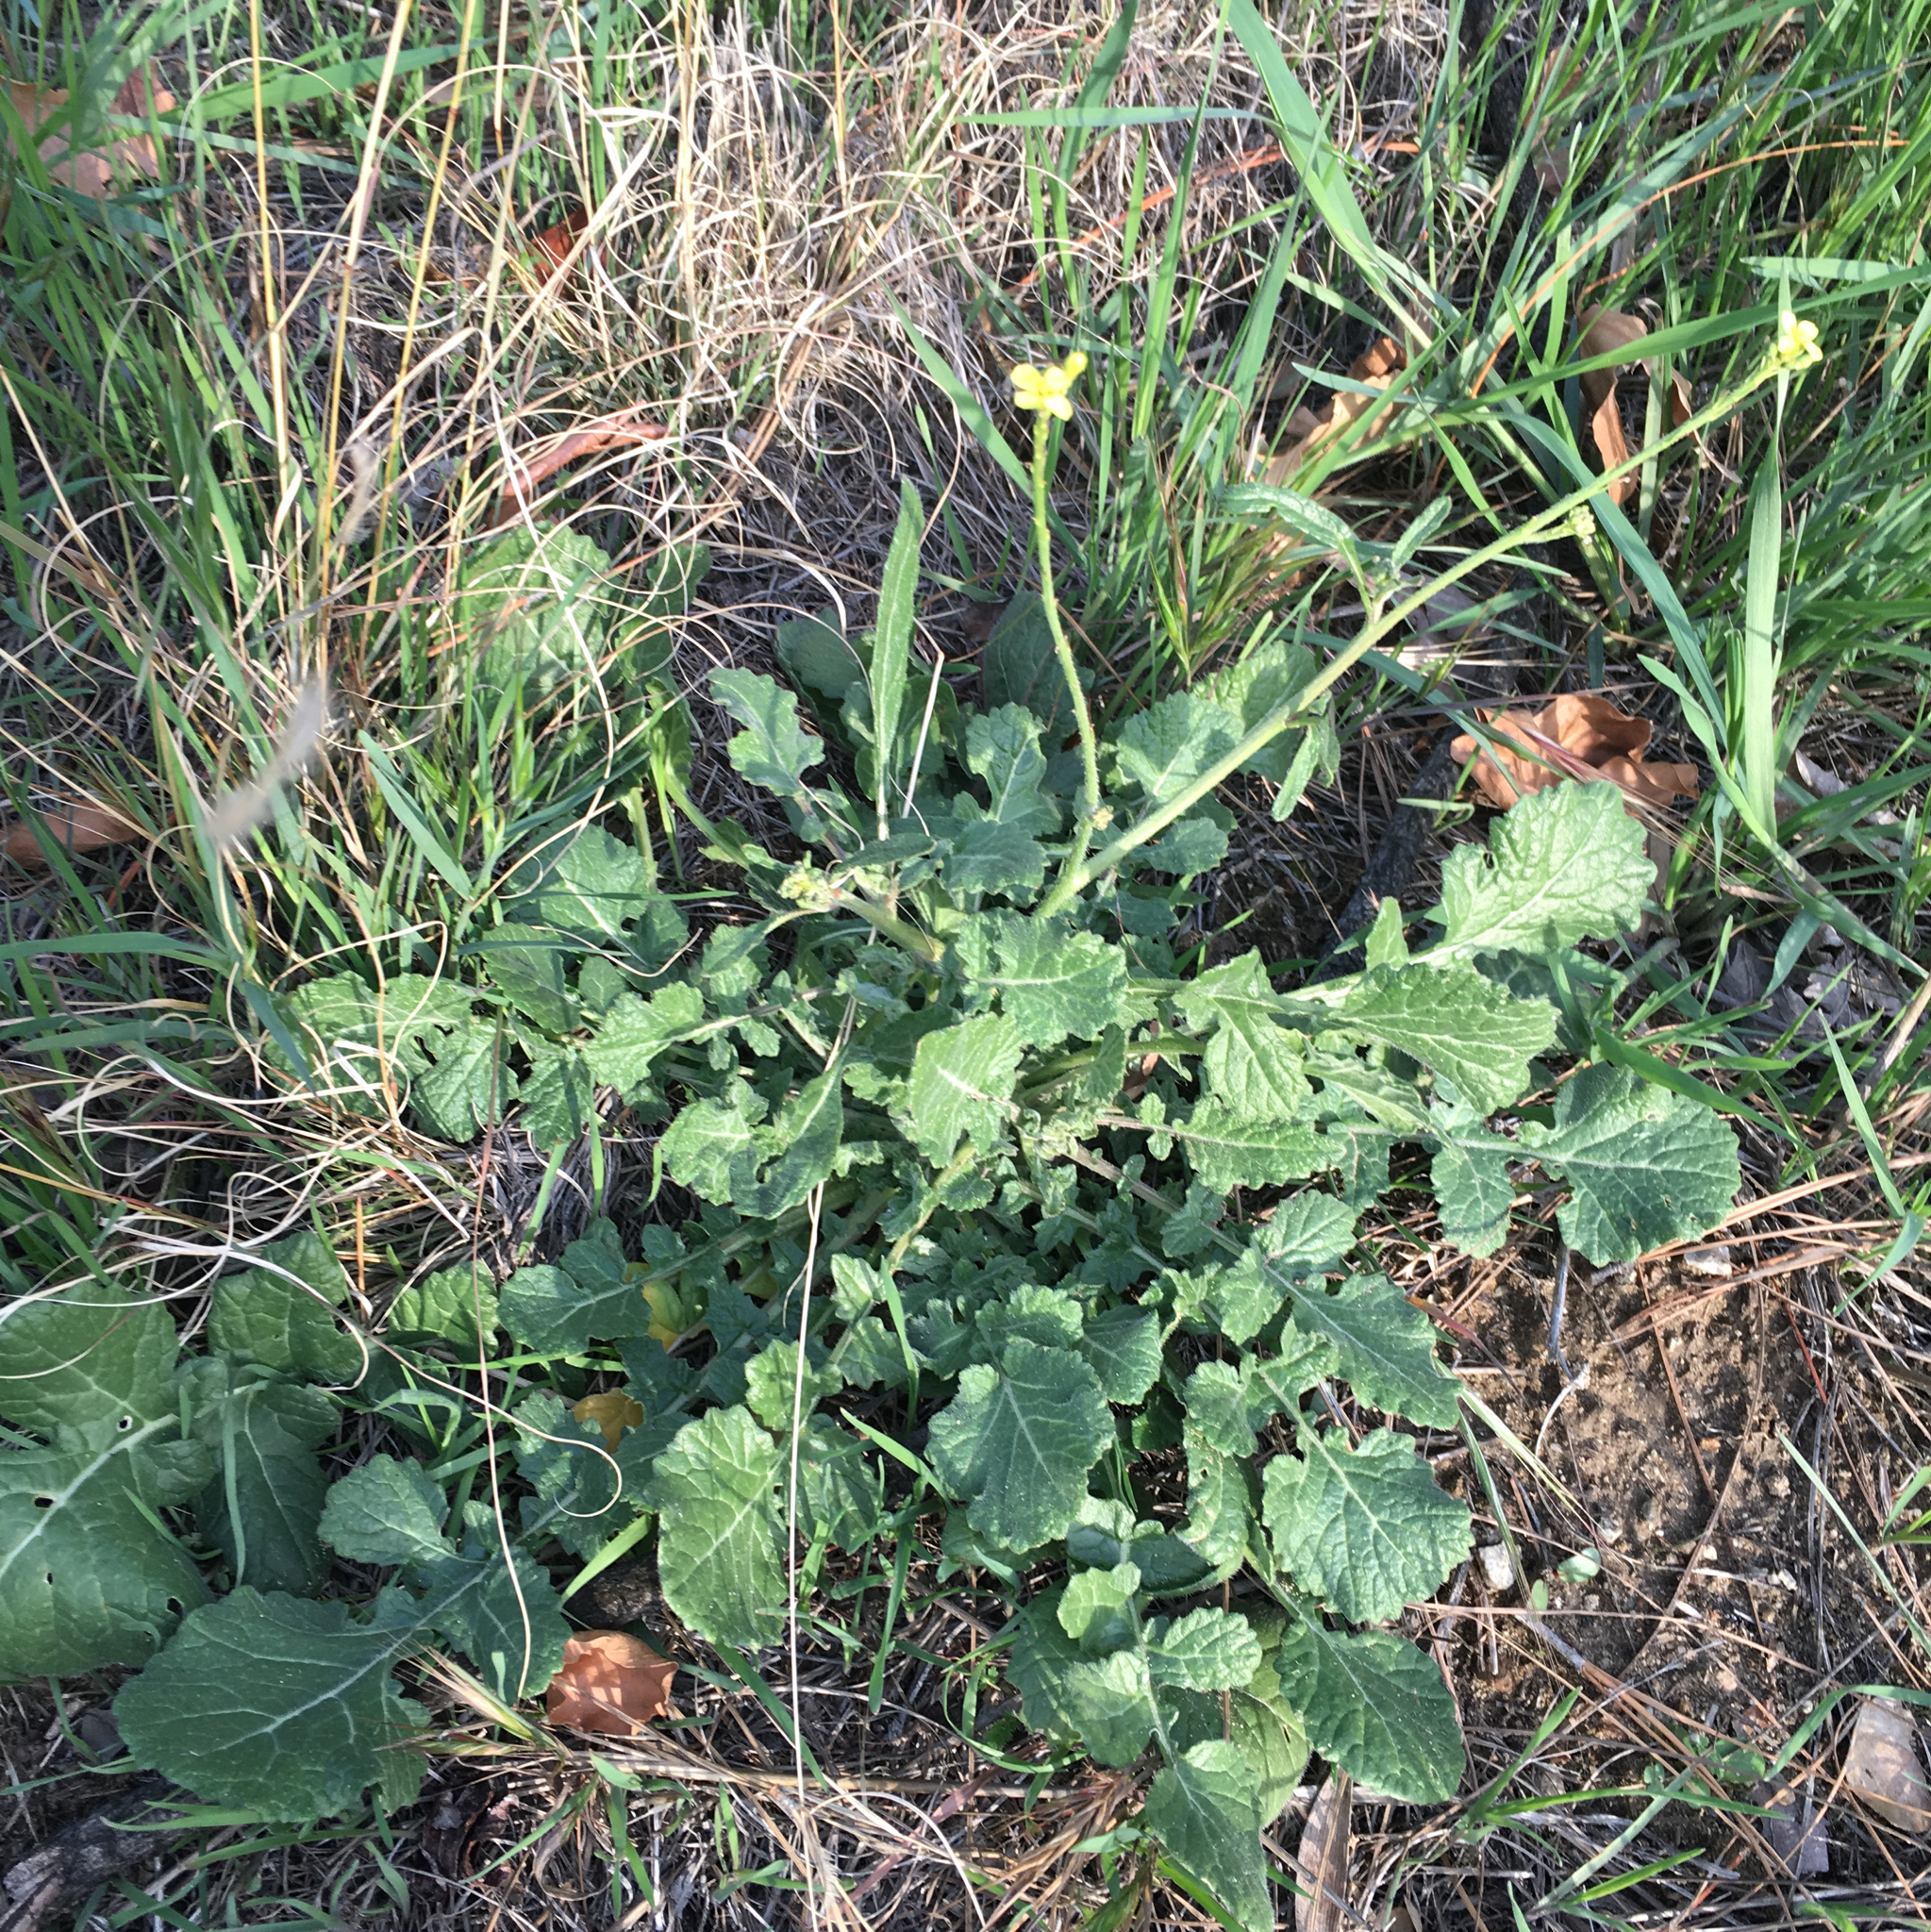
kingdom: Plantae
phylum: Tracheophyta
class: Magnoliopsida
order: Brassicales
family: Brassicaceae
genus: Hirschfeldia
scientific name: Hirschfeldia incana
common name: Hoary mustard
